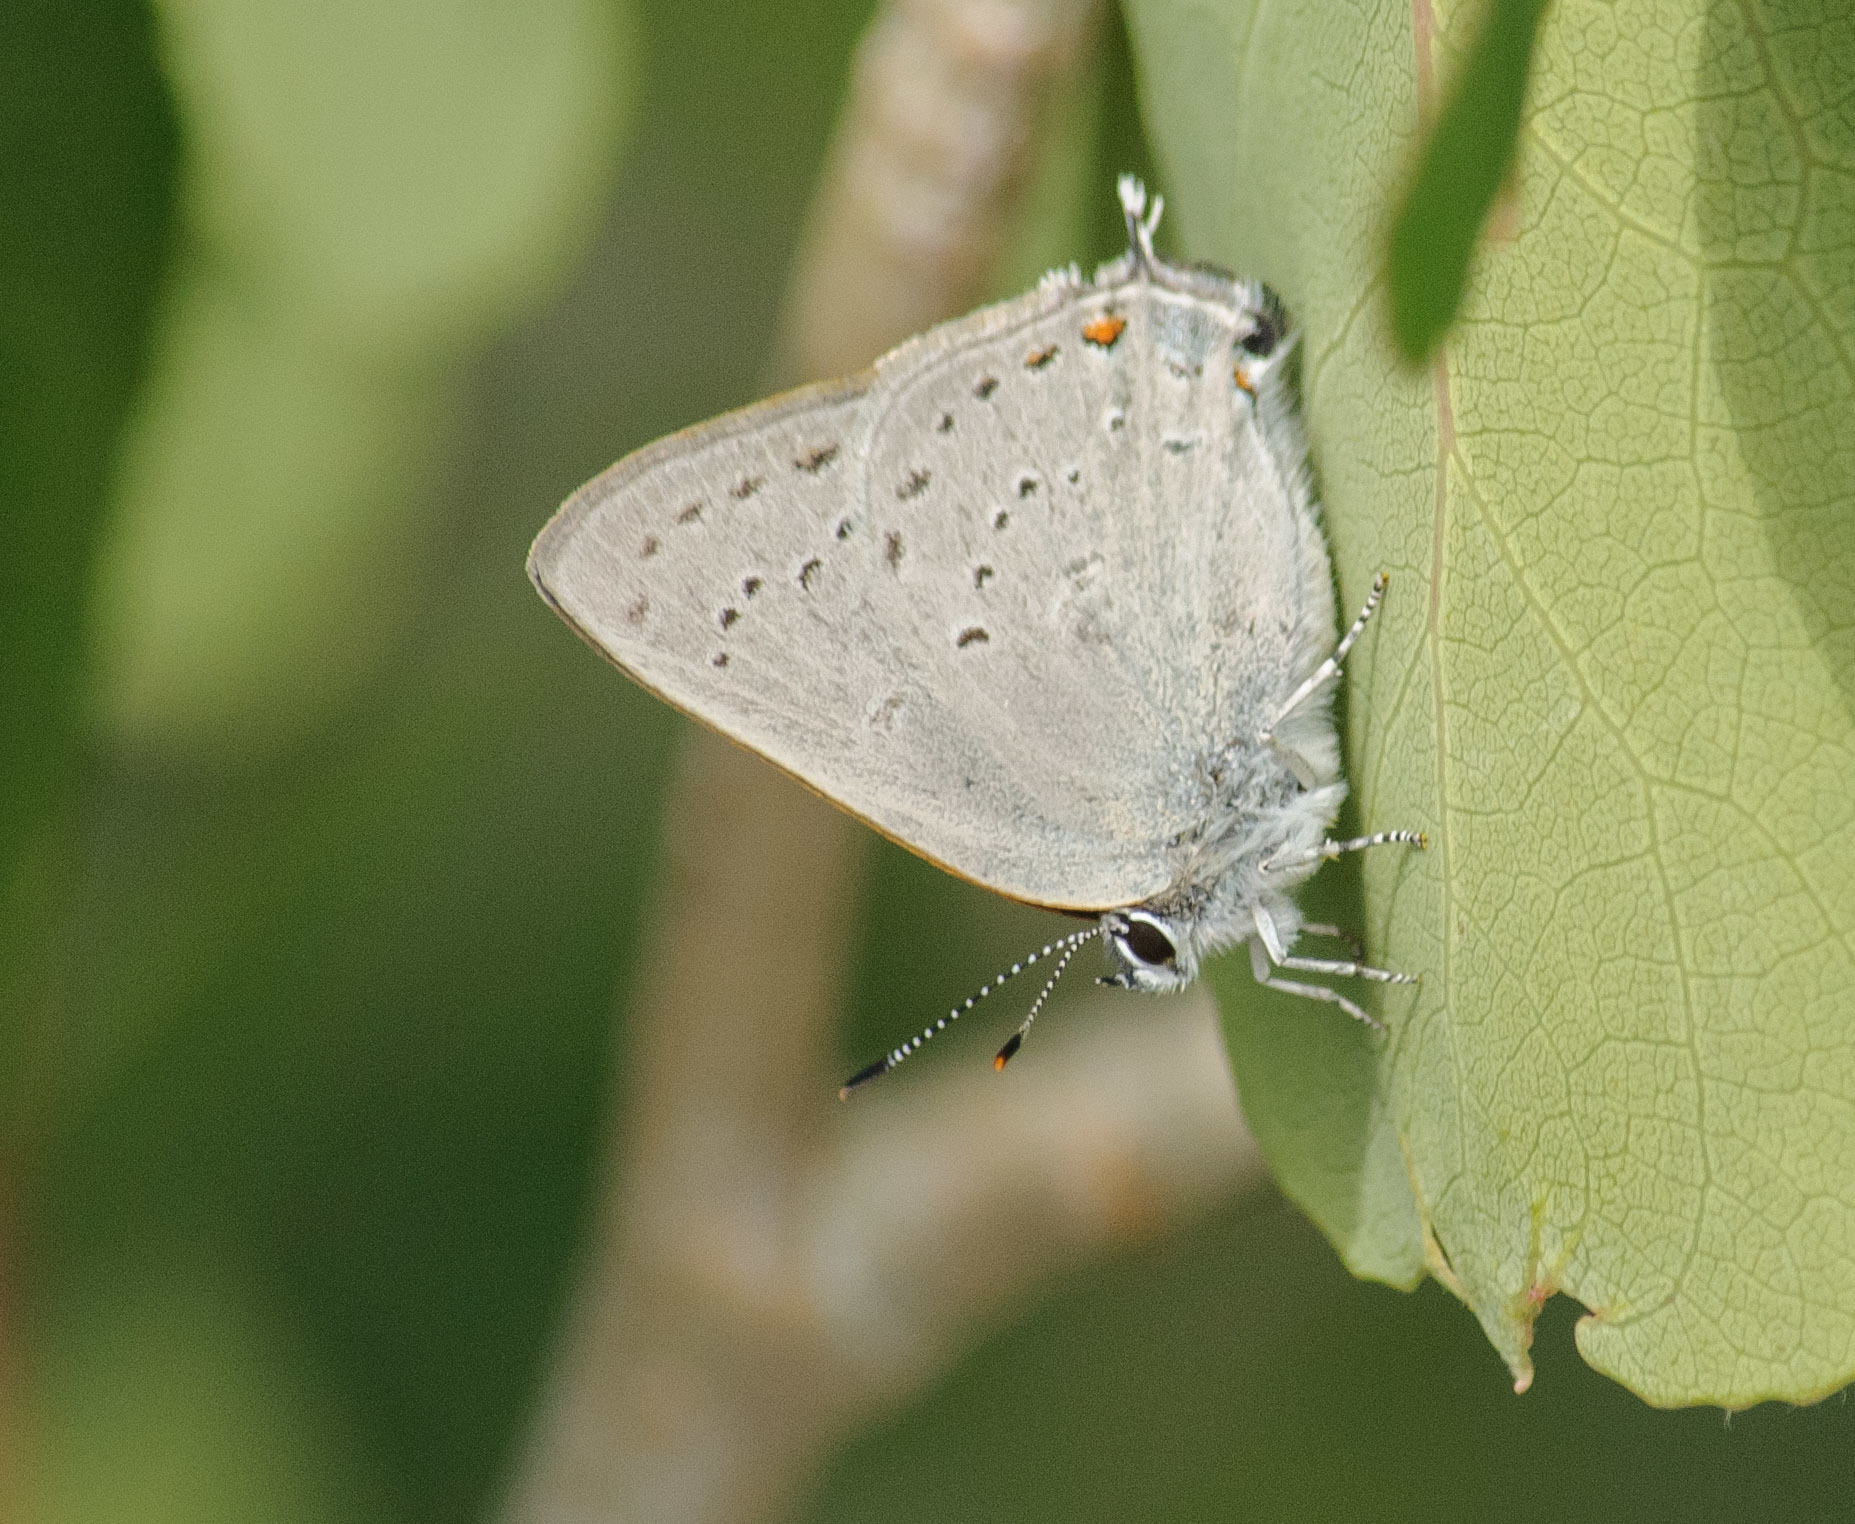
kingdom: Animalia
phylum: Arthropoda
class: Insecta
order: Lepidoptera
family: Lycaenidae
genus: Strymon
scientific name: Strymon sylvinus
